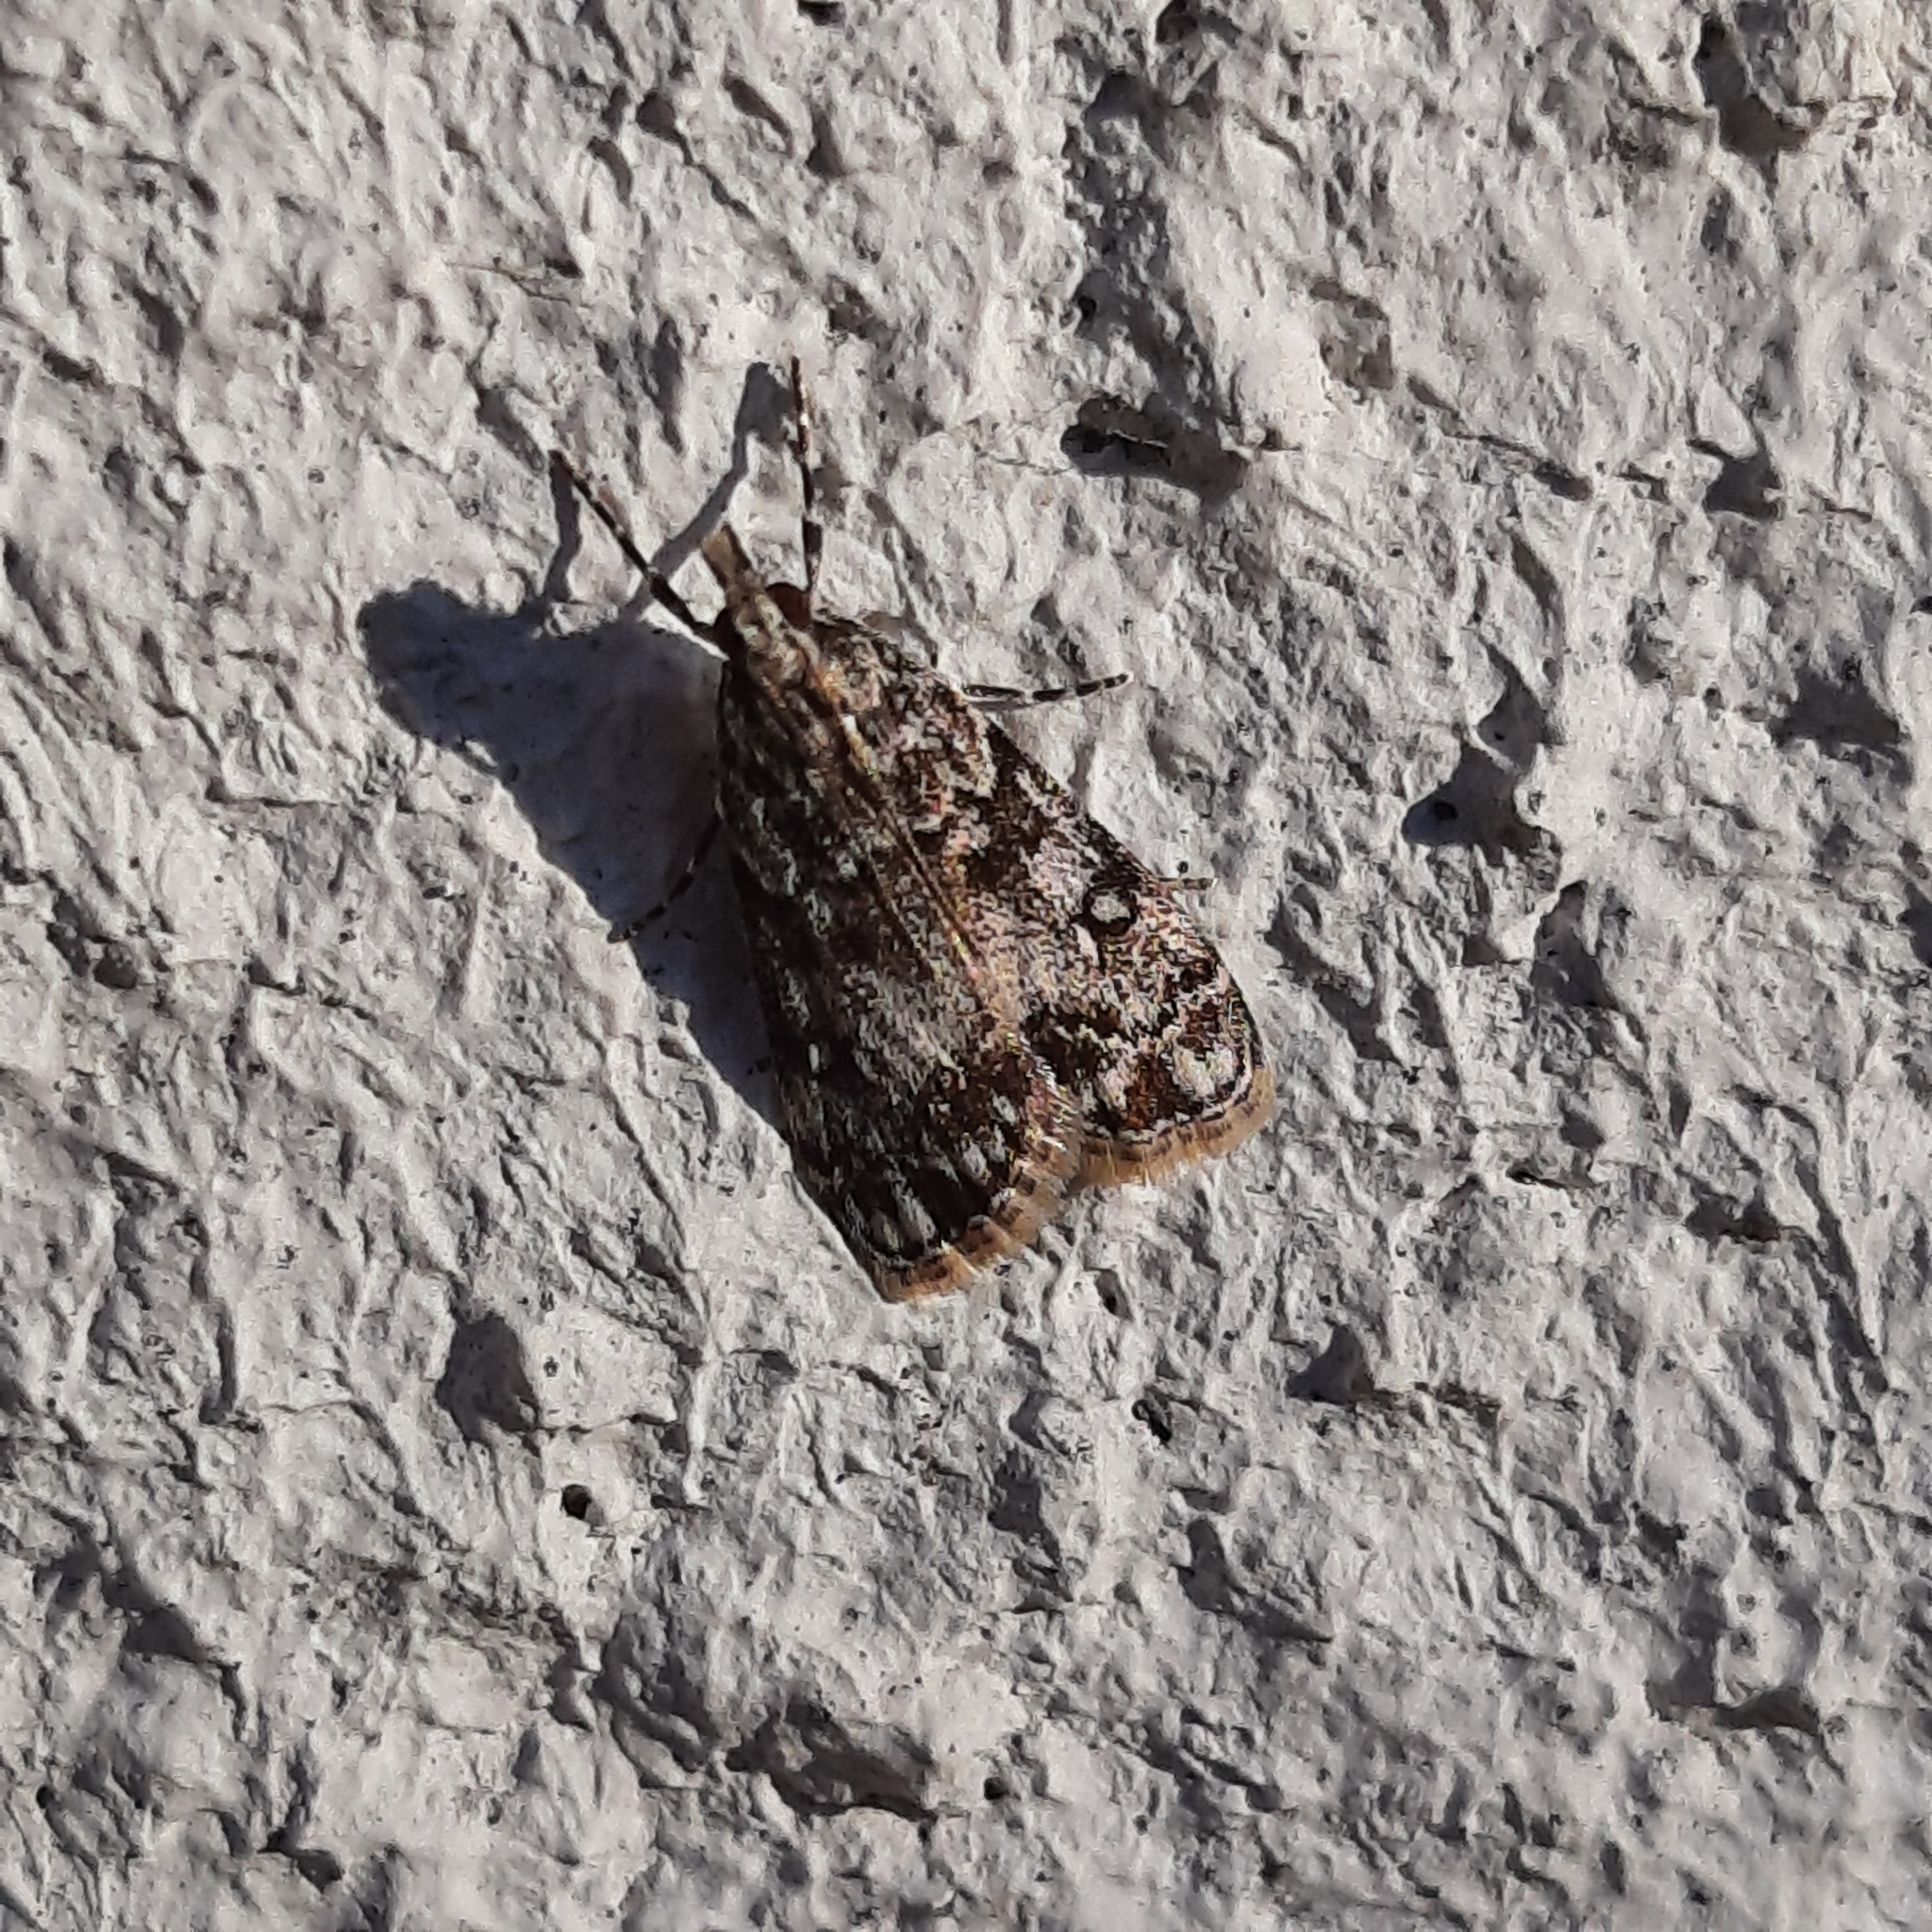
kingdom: Animalia
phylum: Arthropoda
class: Insecta
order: Lepidoptera
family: Crambidae
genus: Eudonia
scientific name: Eudonia
